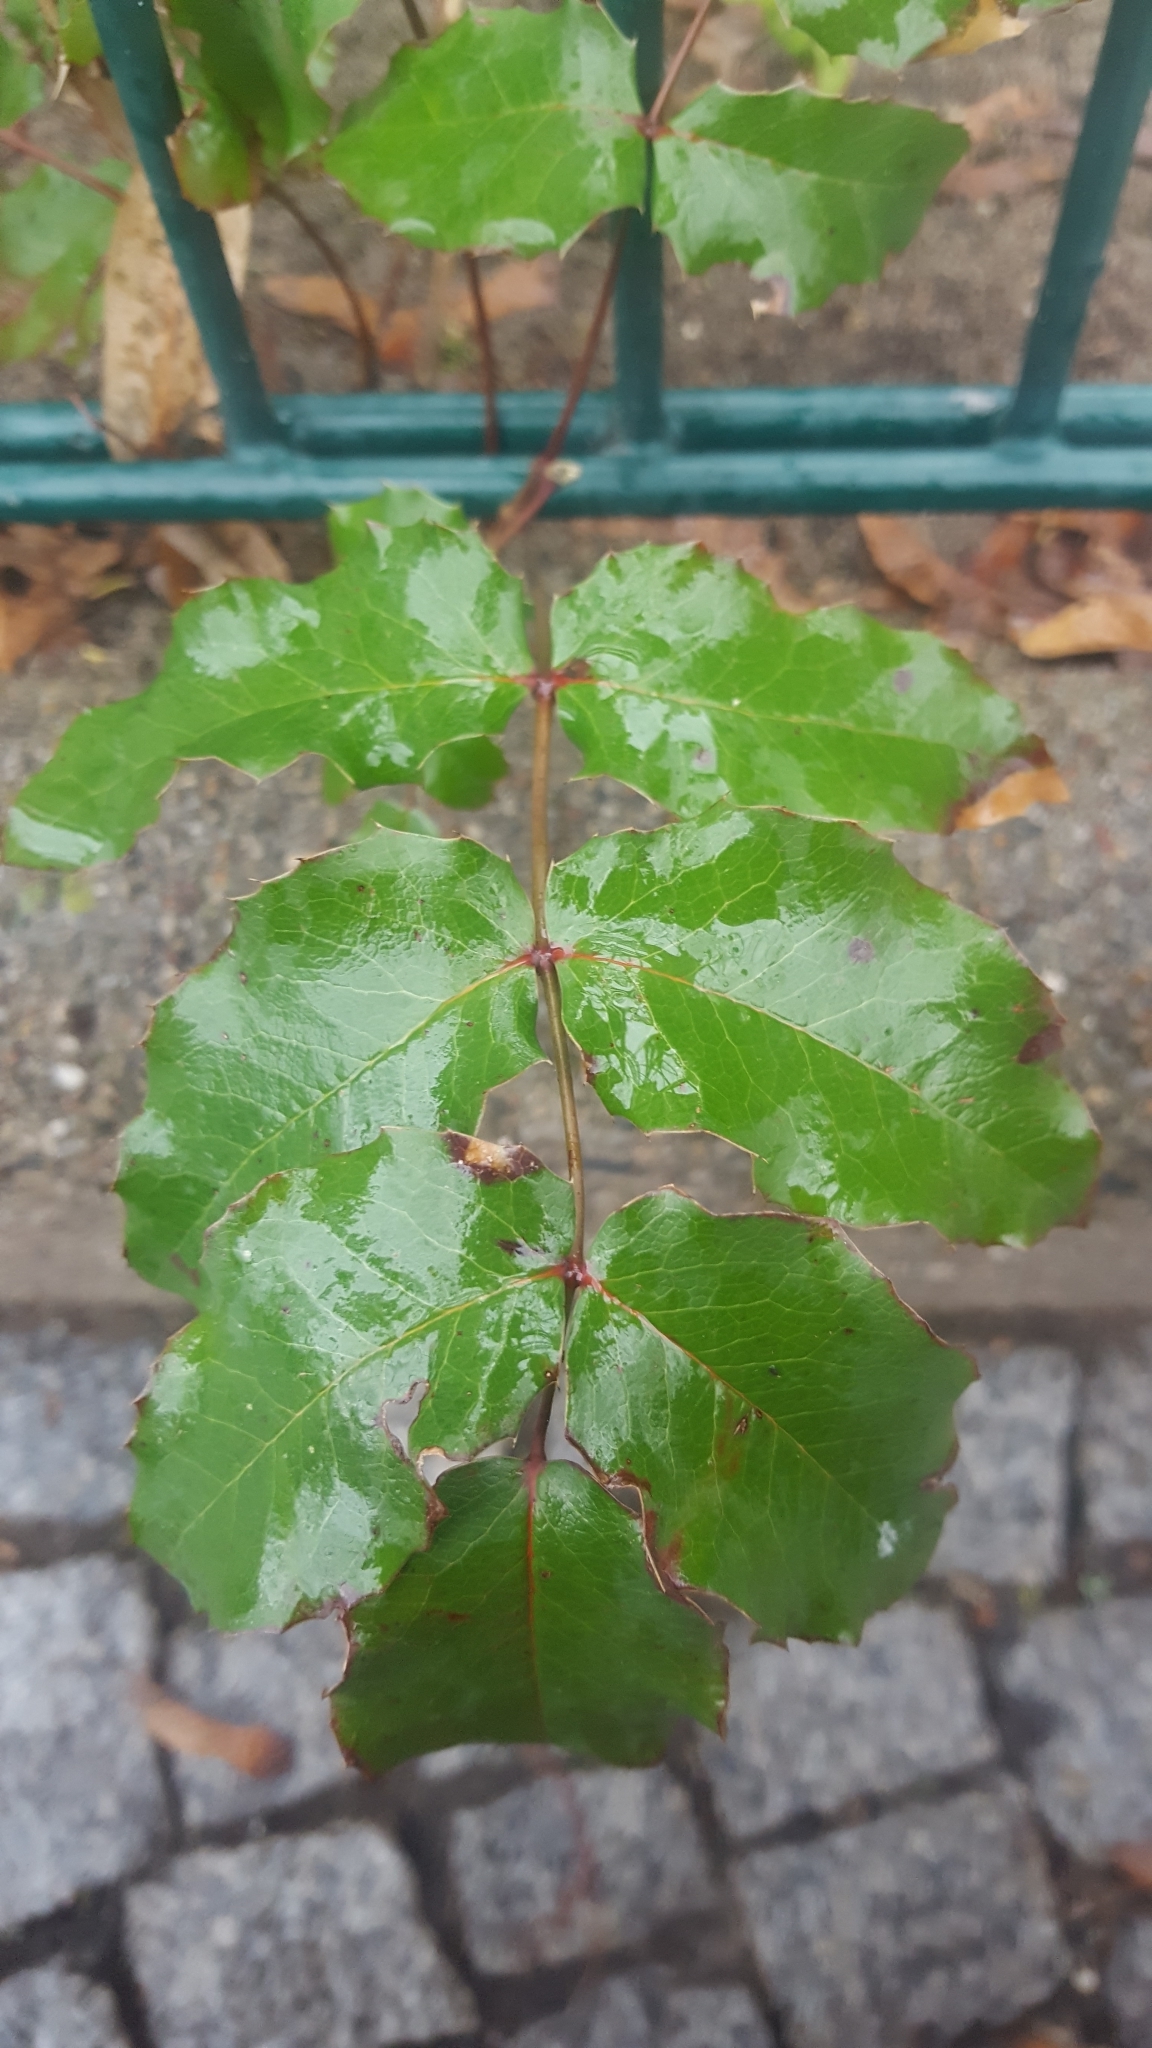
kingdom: Plantae
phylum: Tracheophyta
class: Magnoliopsida
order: Ranunculales
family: Berberidaceae
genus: Mahonia
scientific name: Mahonia aquifolium
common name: Oregon-grape
